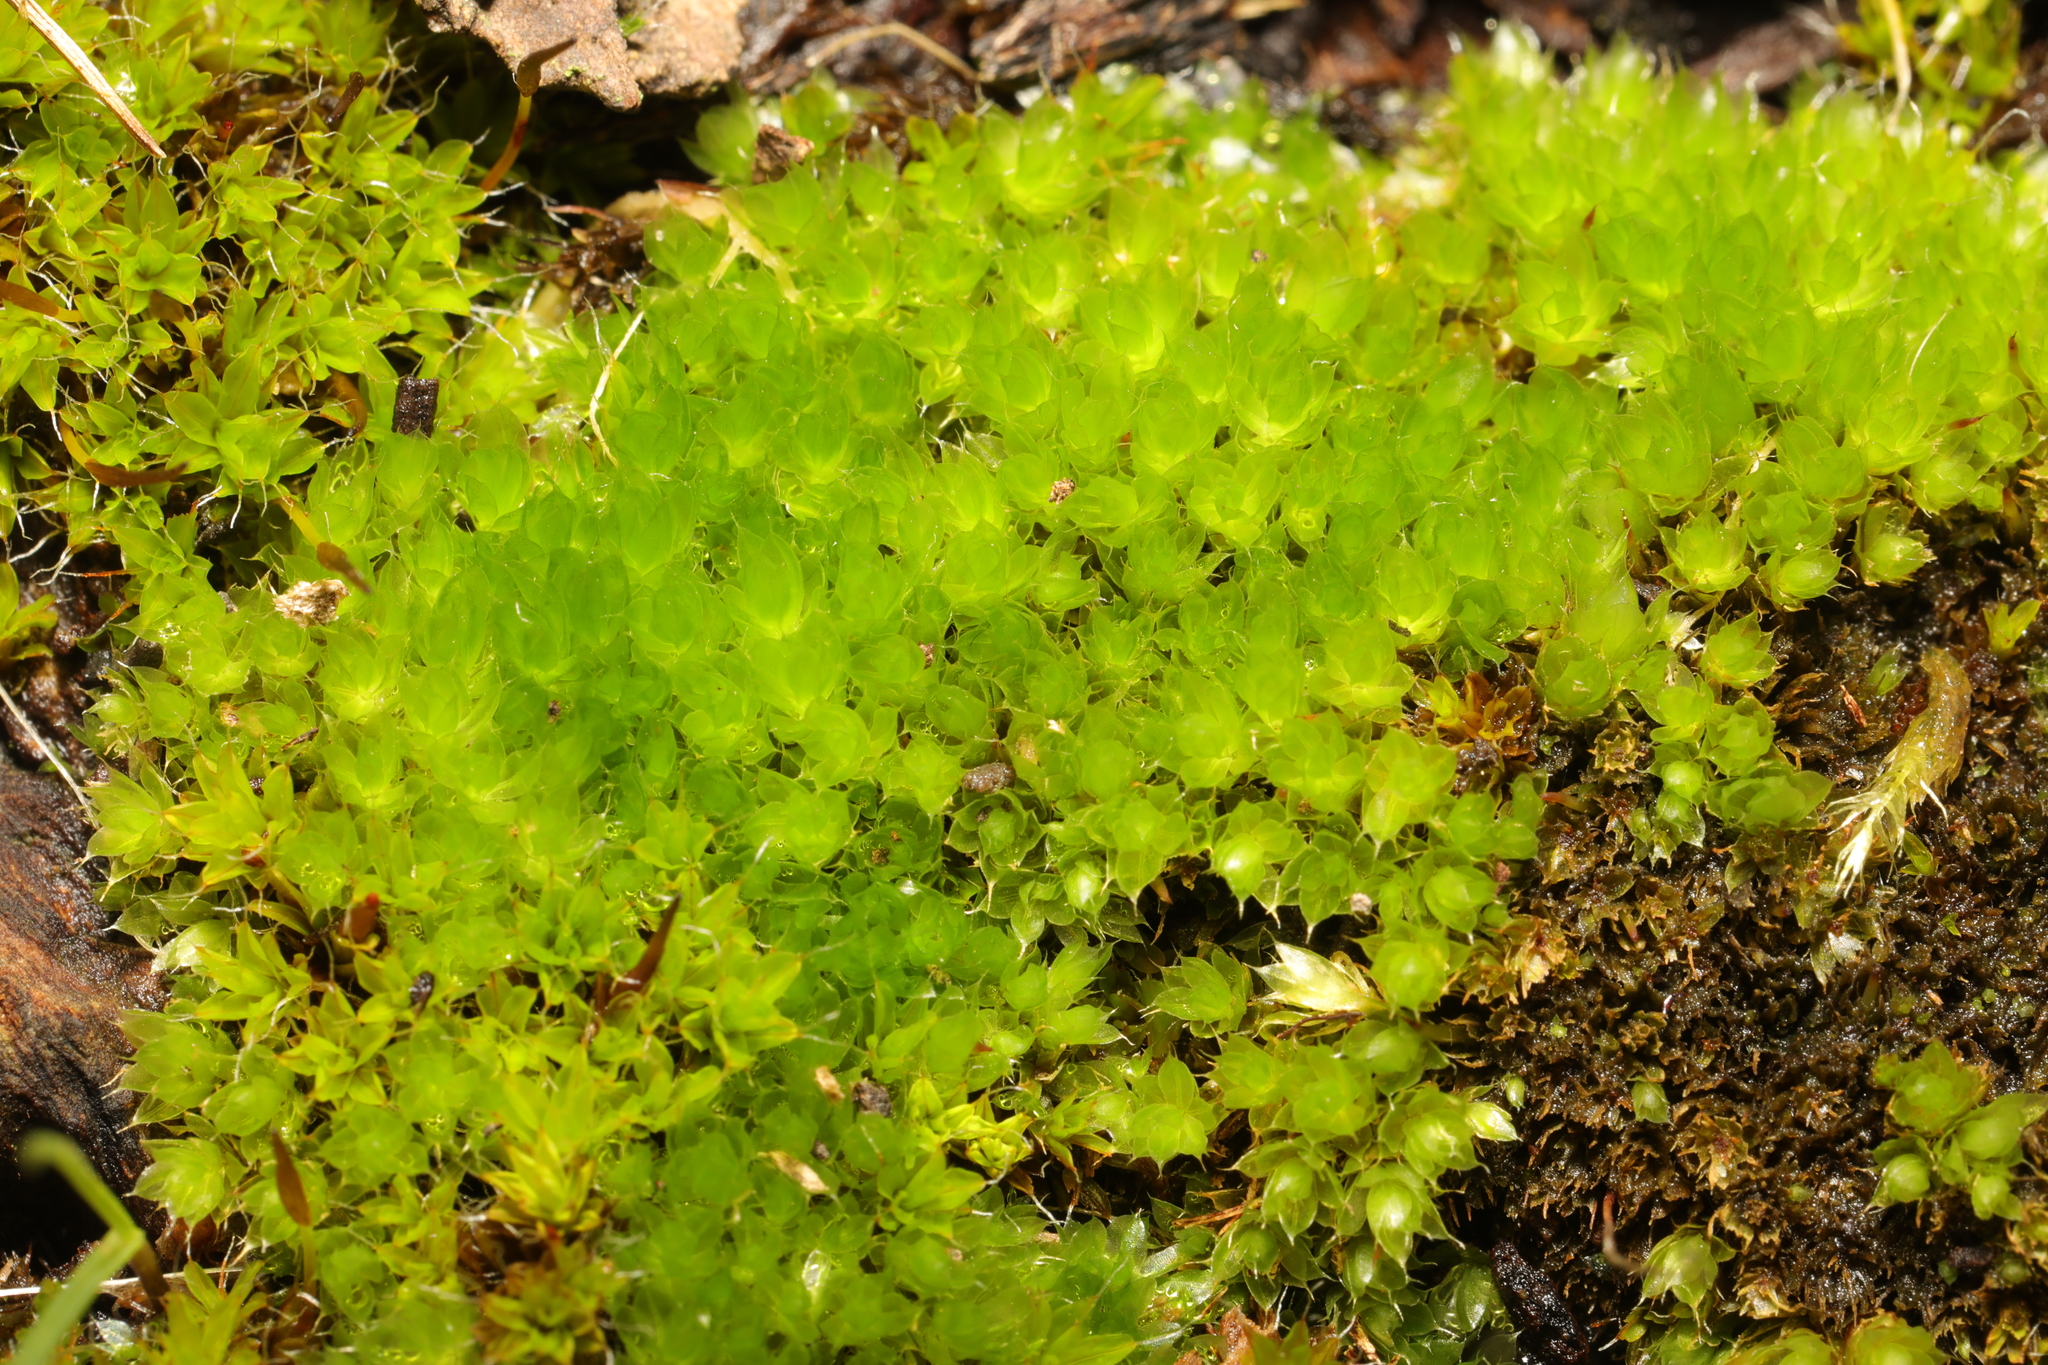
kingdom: Plantae
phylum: Bryophyta
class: Bryopsida
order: Bryales
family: Bryaceae
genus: Rosulabryum
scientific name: Rosulabryum capillare
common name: Capillary thread-moss
